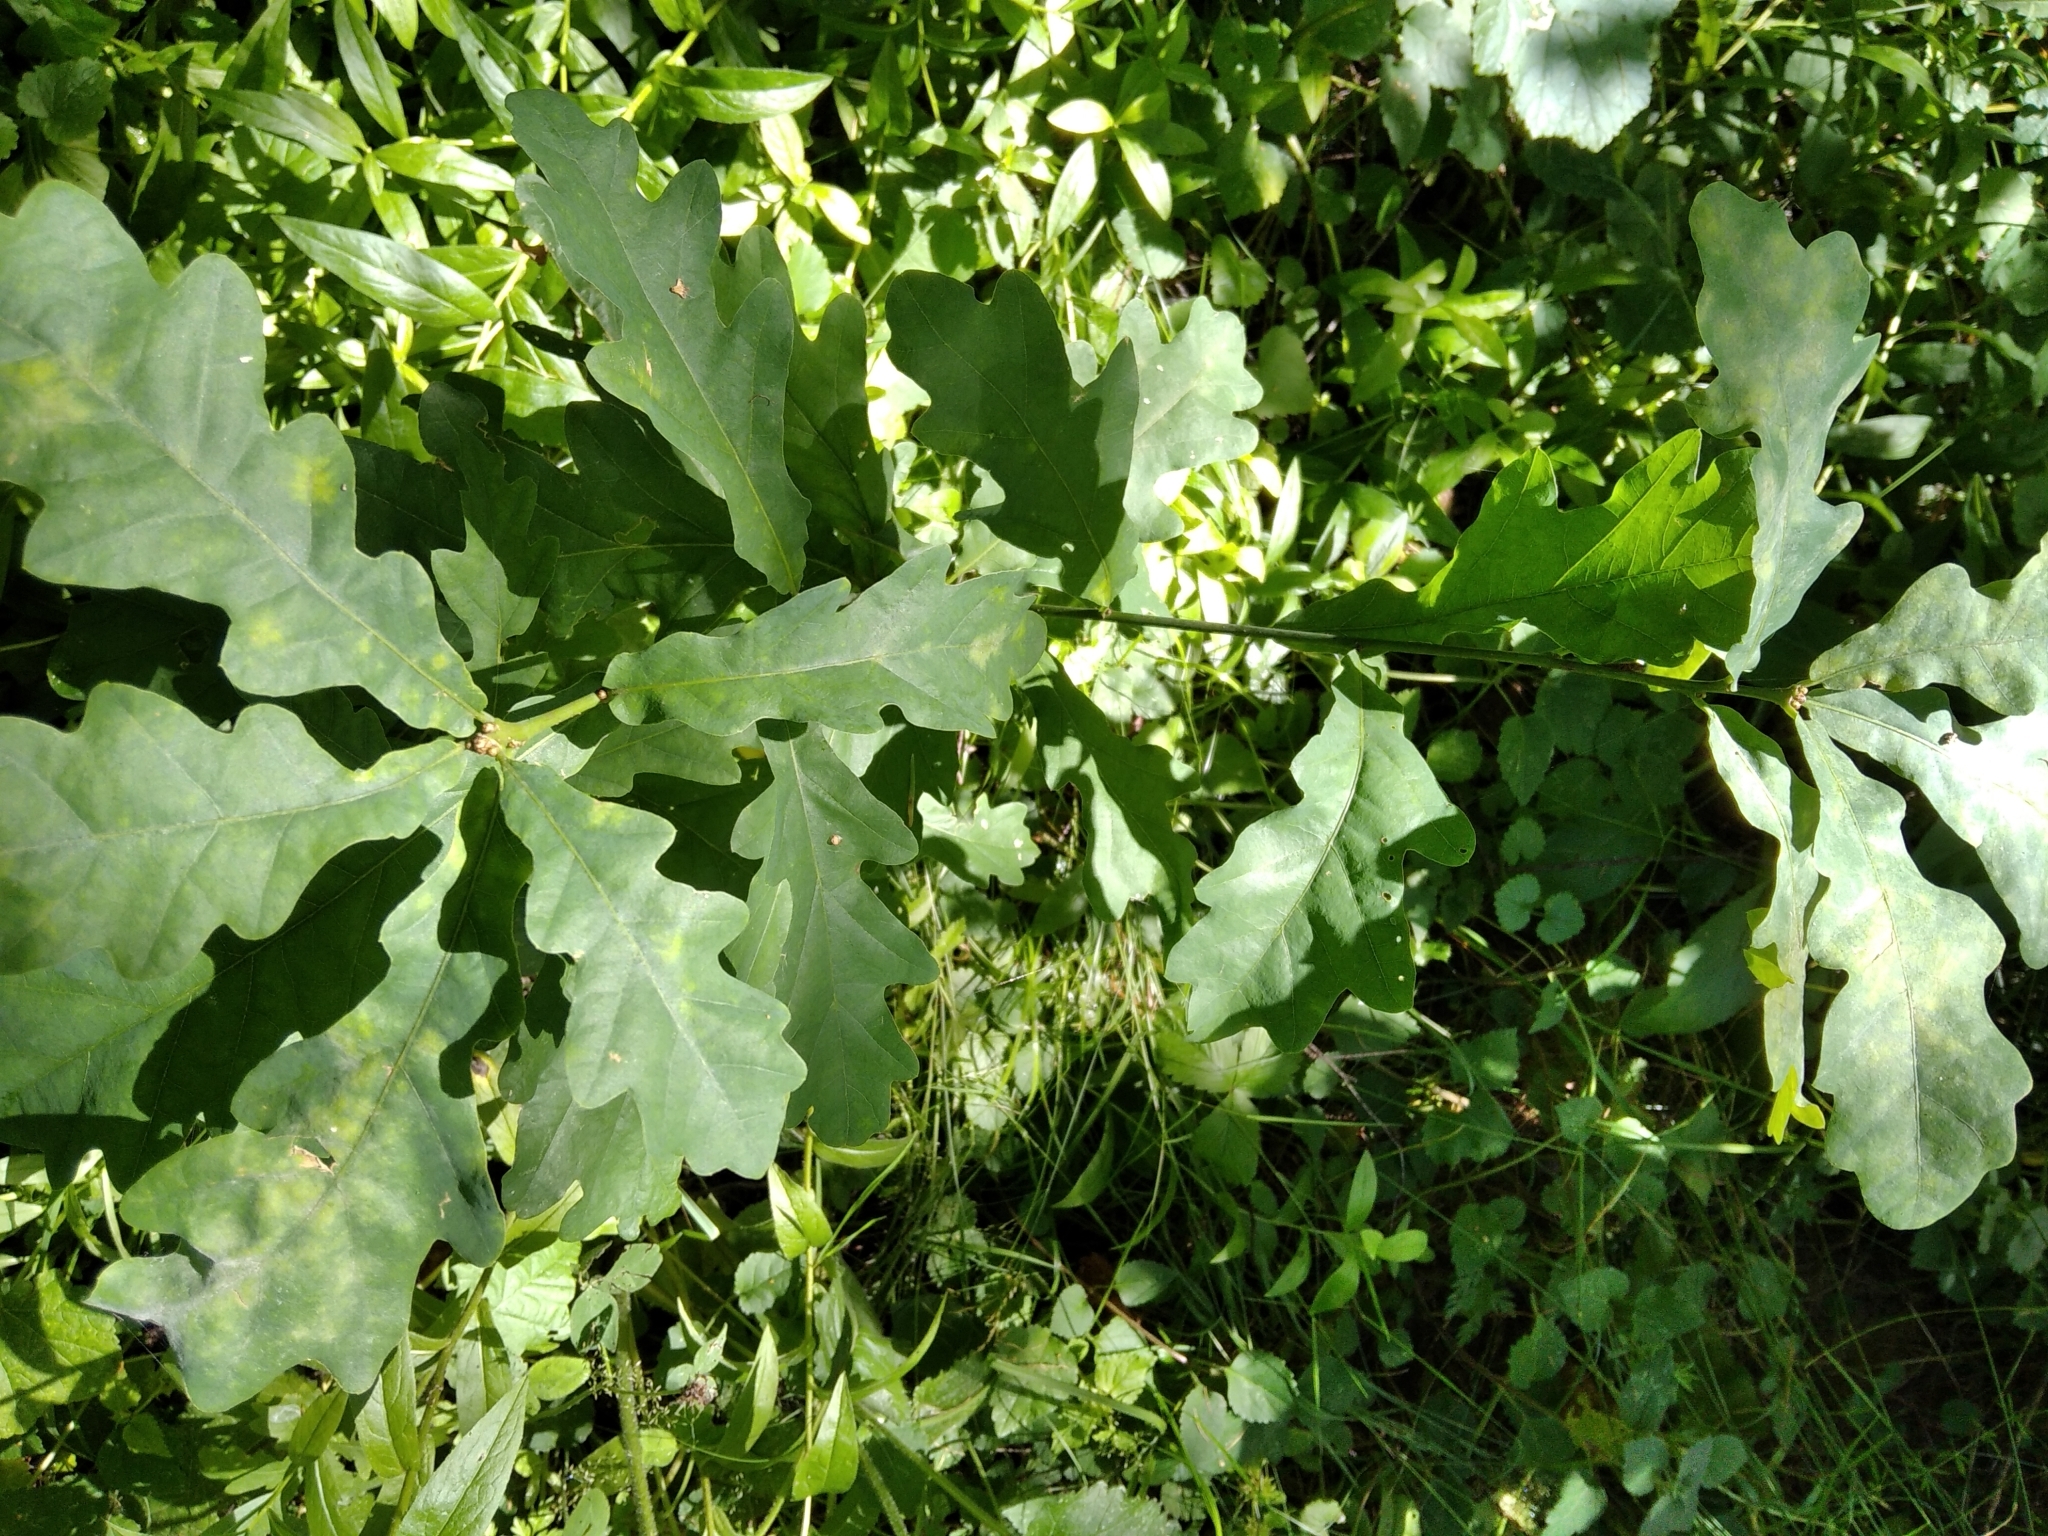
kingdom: Plantae
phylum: Tracheophyta
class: Magnoliopsida
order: Fagales
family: Fagaceae
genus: Quercus
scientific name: Quercus robur
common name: Pedunculate oak
